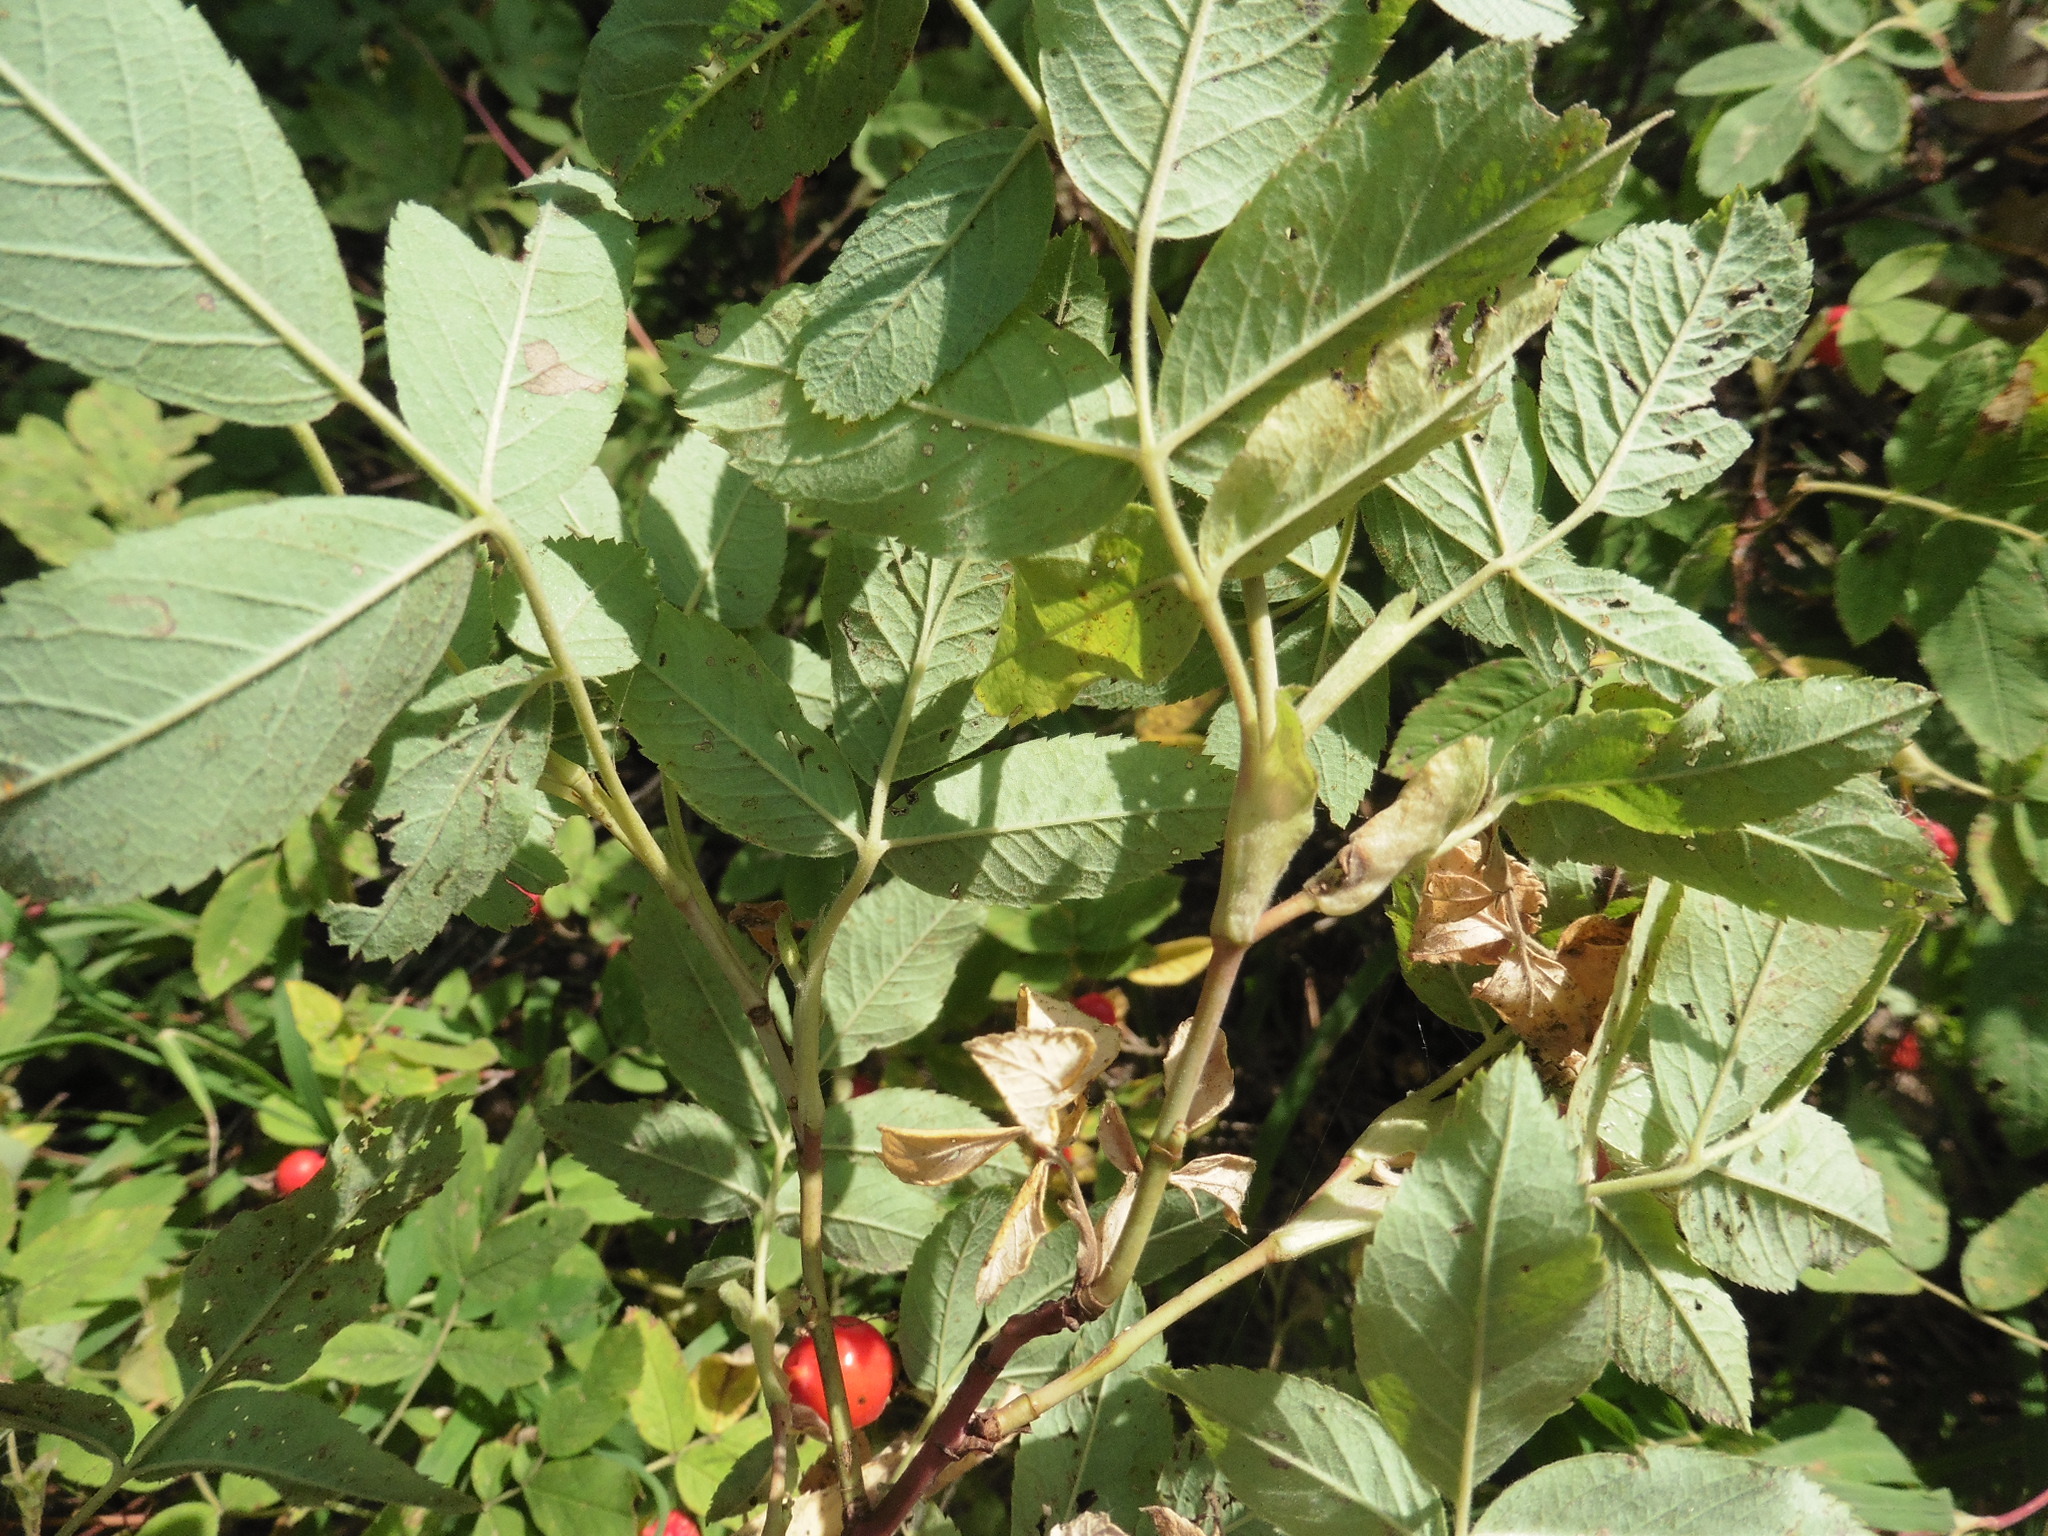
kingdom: Plantae
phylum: Tracheophyta
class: Magnoliopsida
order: Rosales
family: Rosaceae
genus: Rosa
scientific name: Rosa majalis
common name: Cinnamon rose
